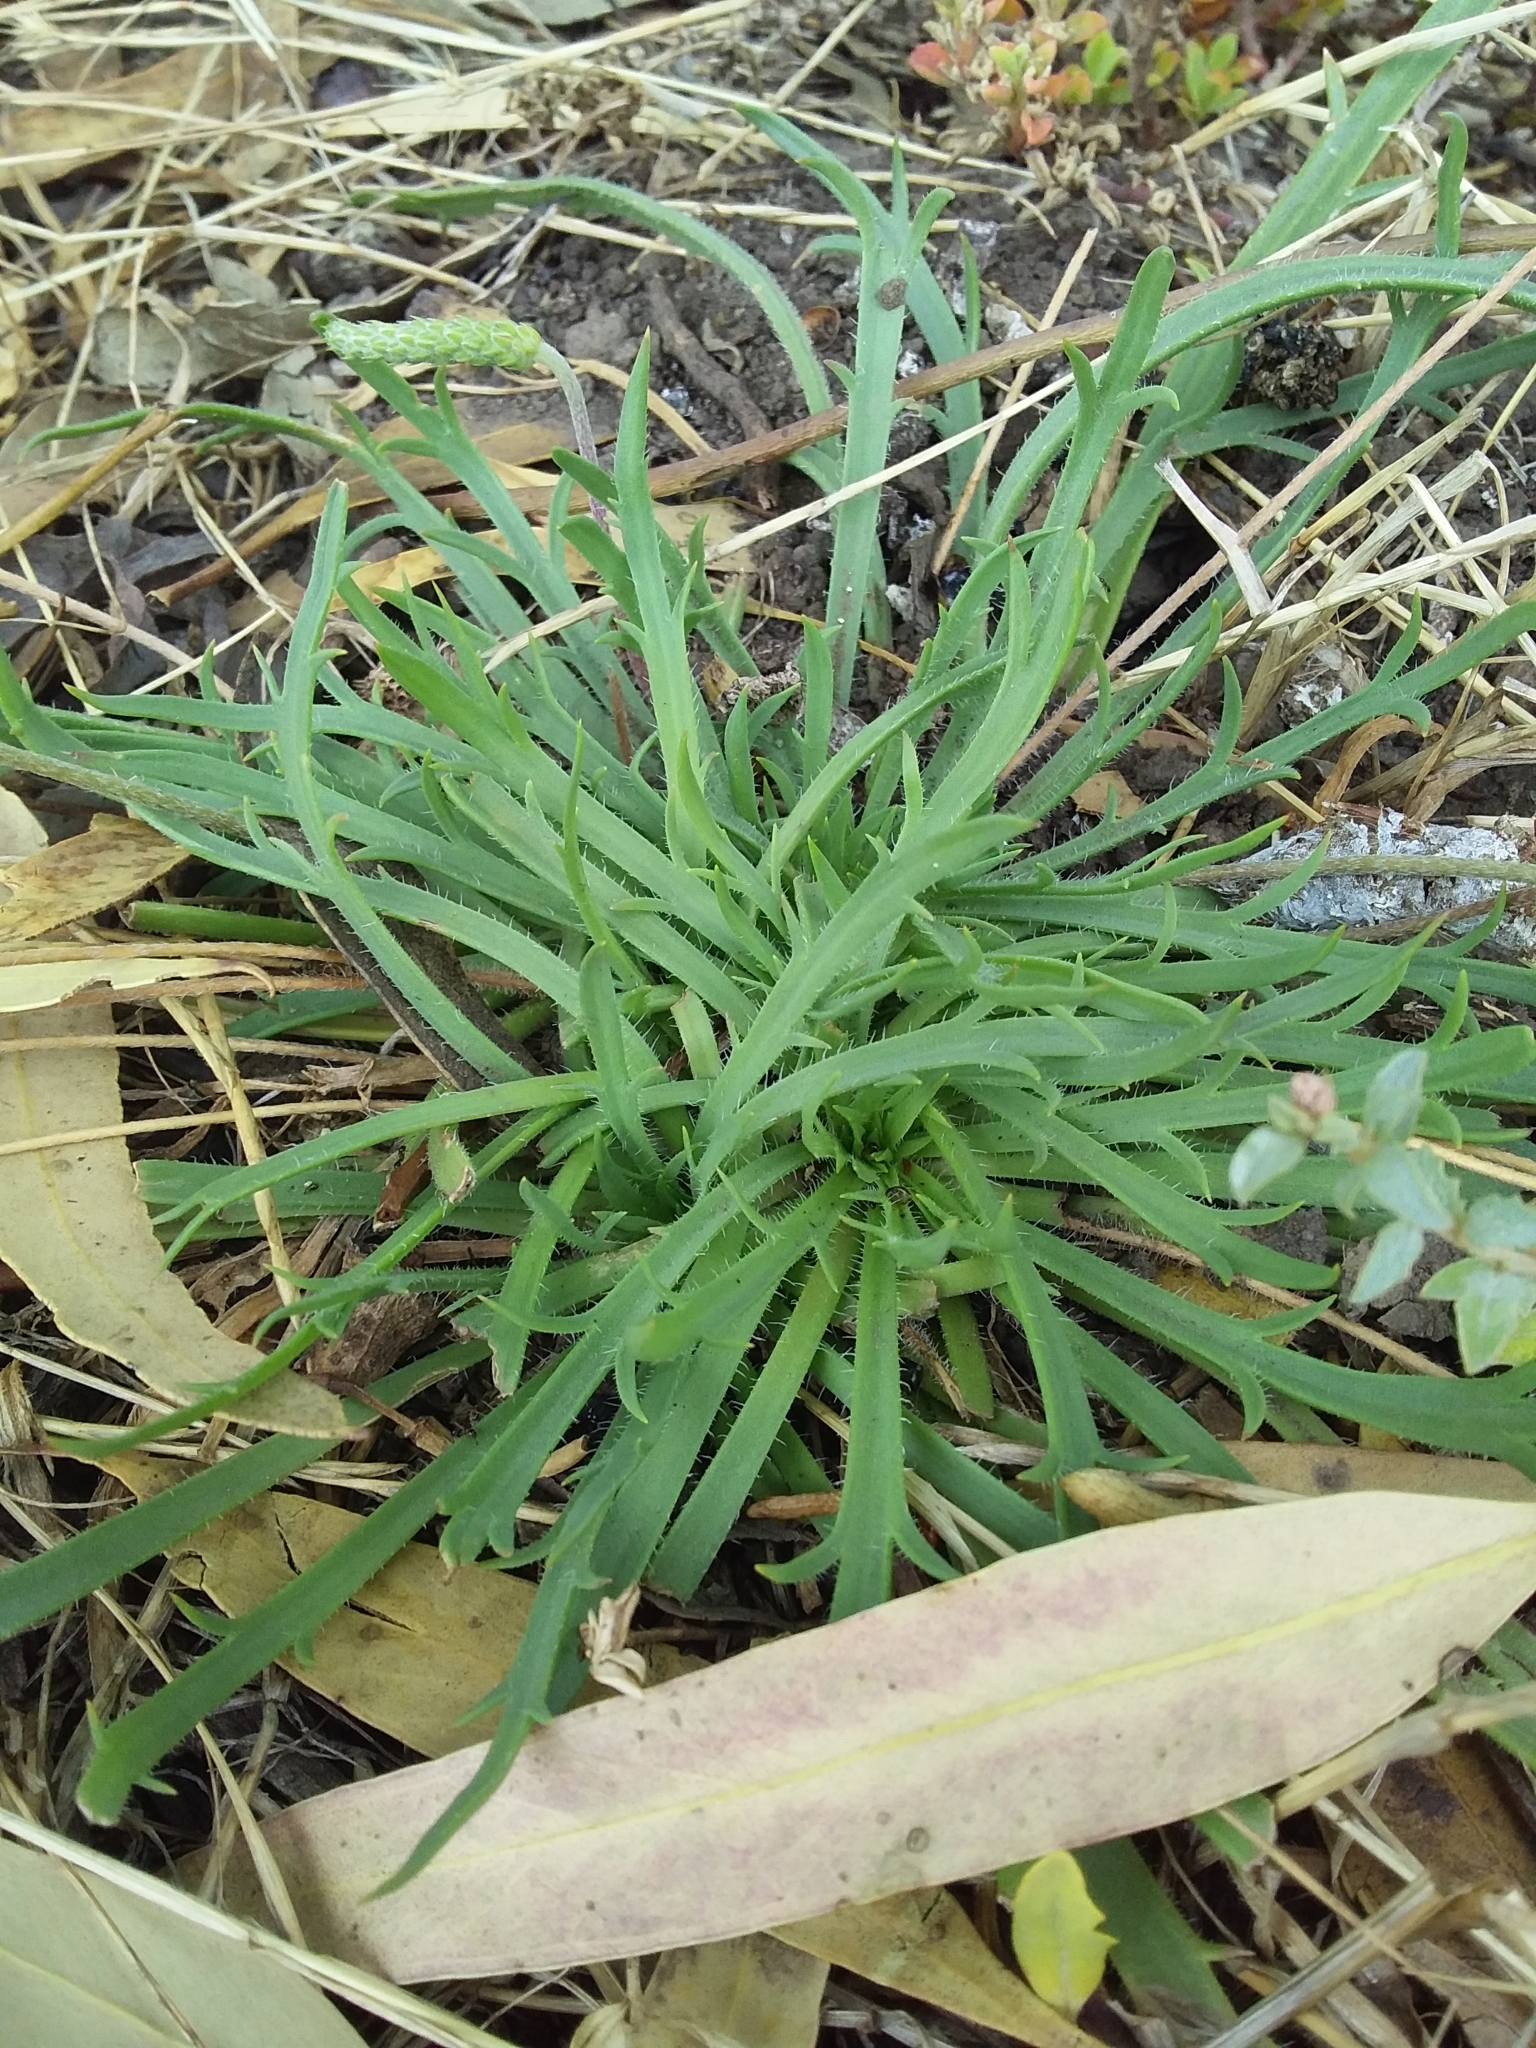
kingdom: Plantae
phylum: Tracheophyta
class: Magnoliopsida
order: Lamiales
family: Plantaginaceae
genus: Plantago
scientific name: Plantago coronopus
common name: Buck's-horn plantain
